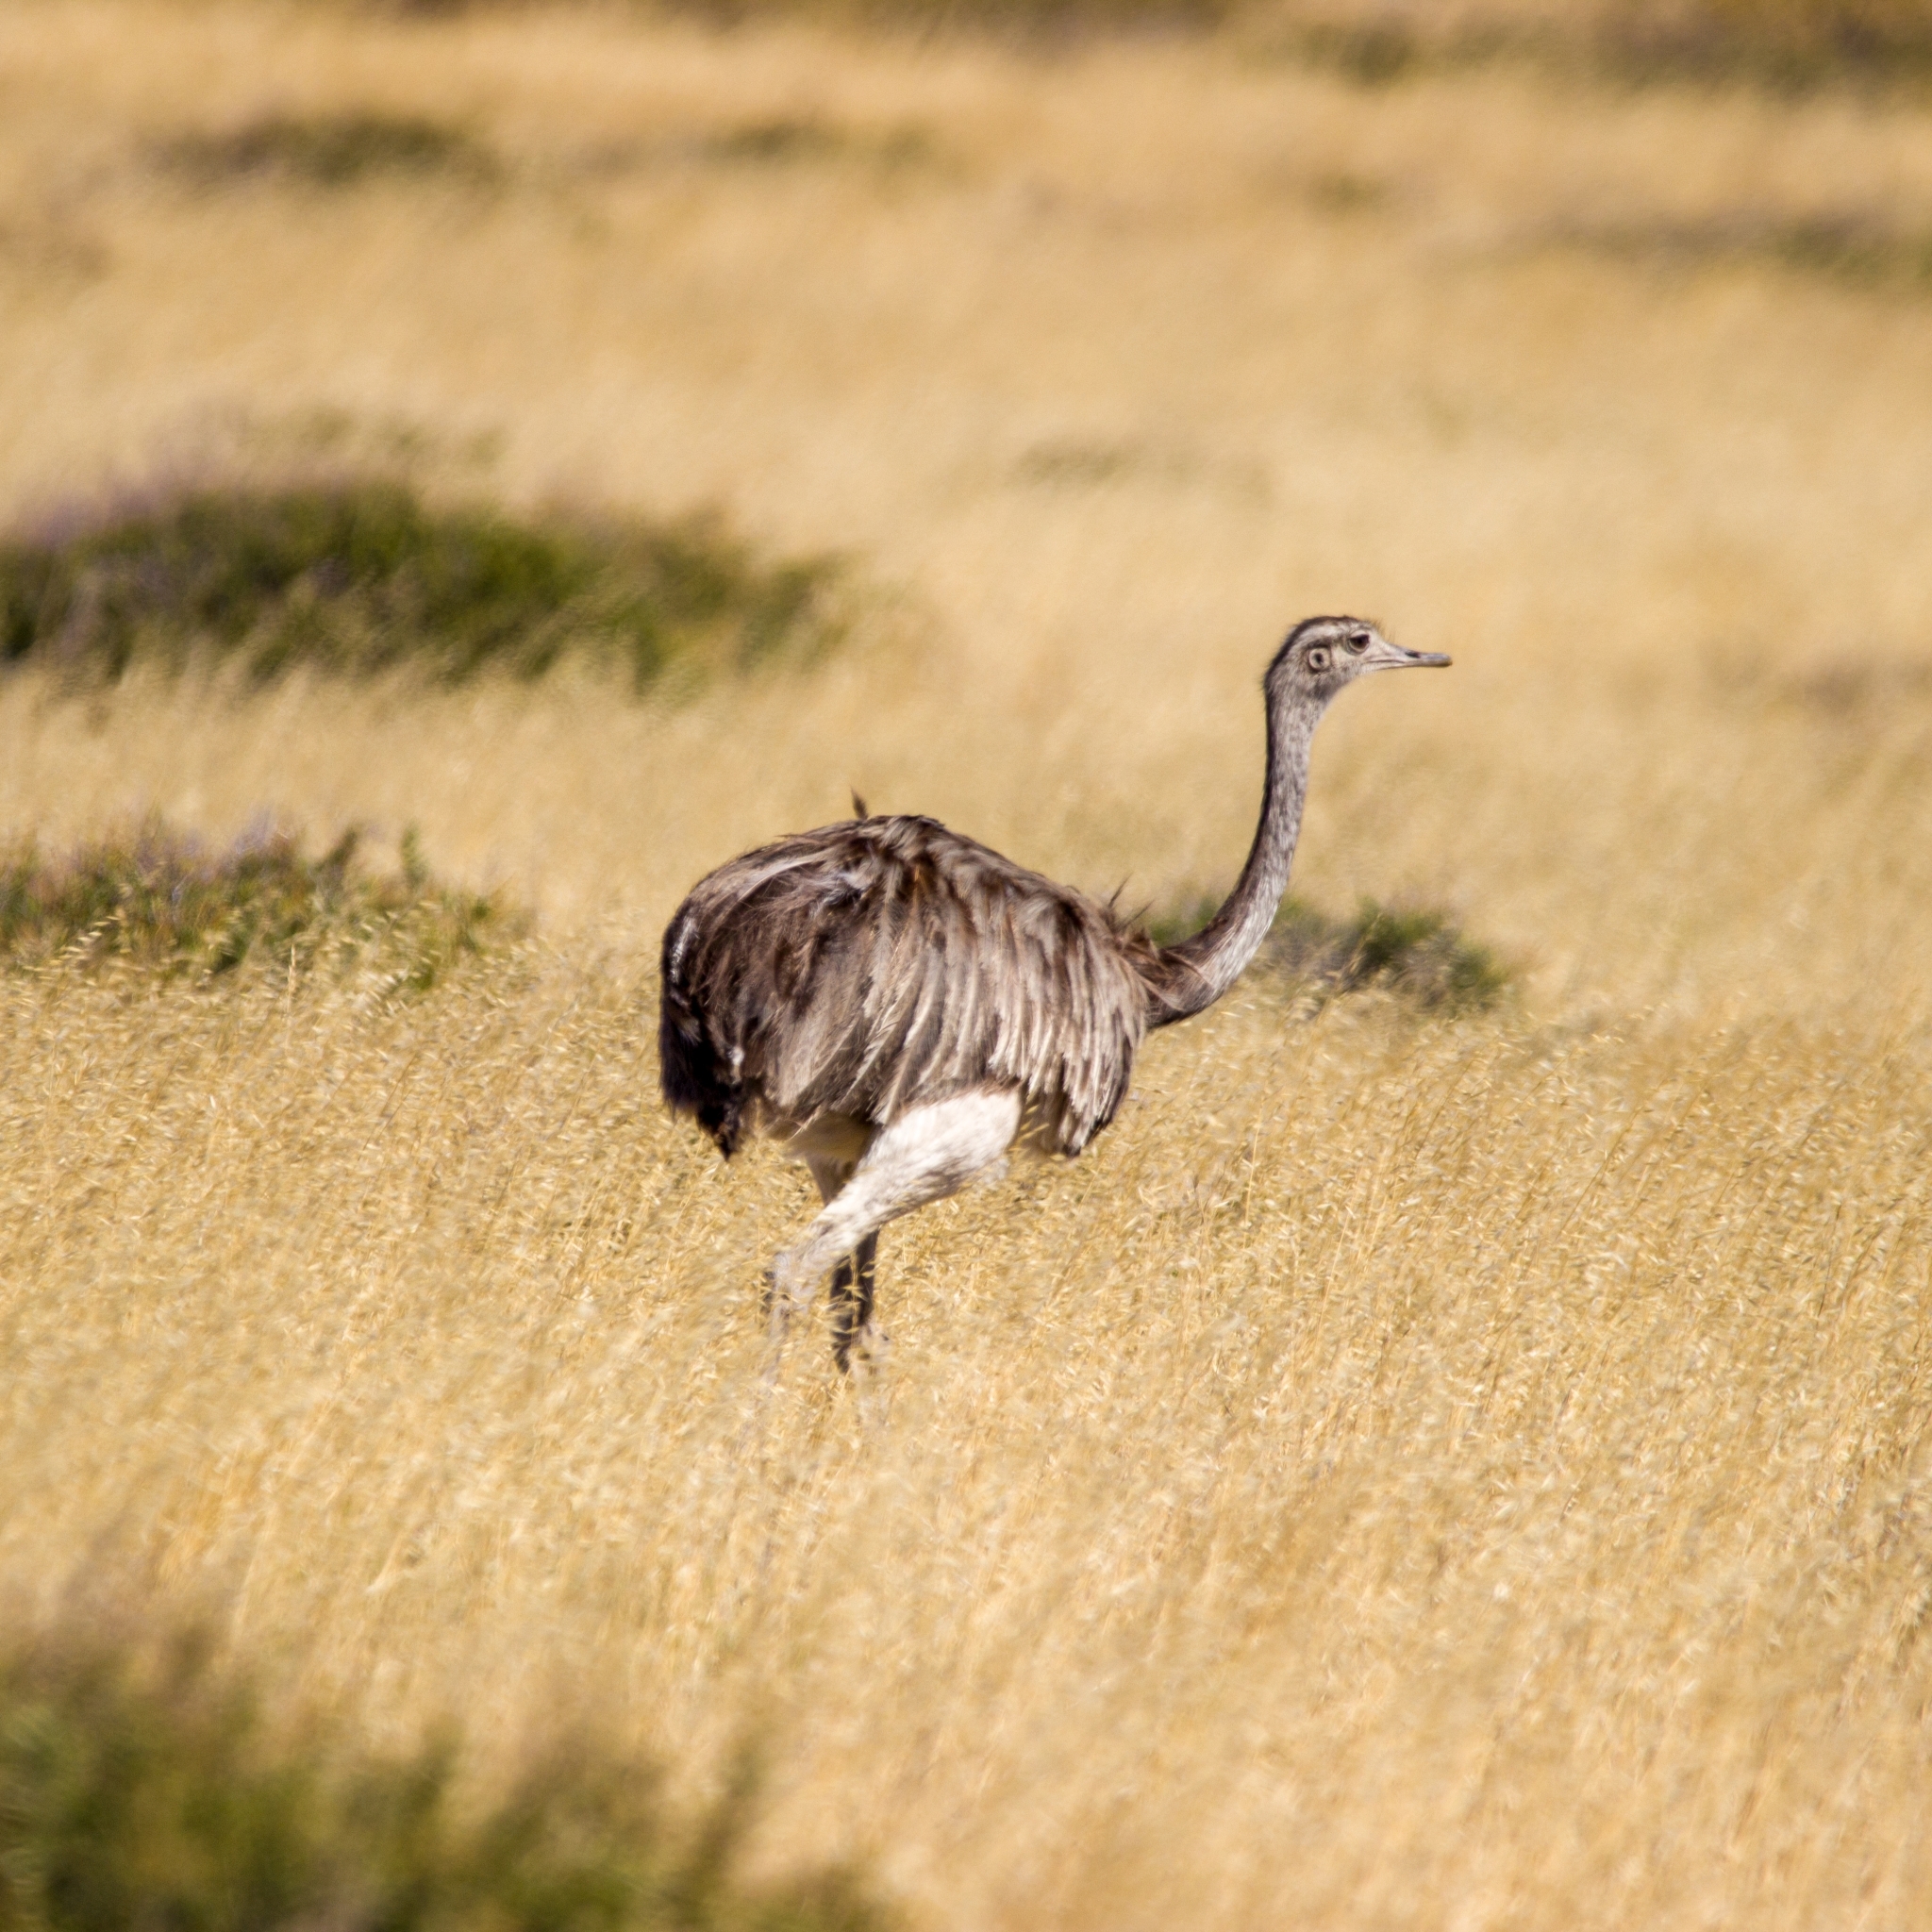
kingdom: Animalia
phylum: Chordata
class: Aves
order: Rheiformes
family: Rheidae
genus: Rhea
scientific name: Rhea americana
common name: Greater rhea
